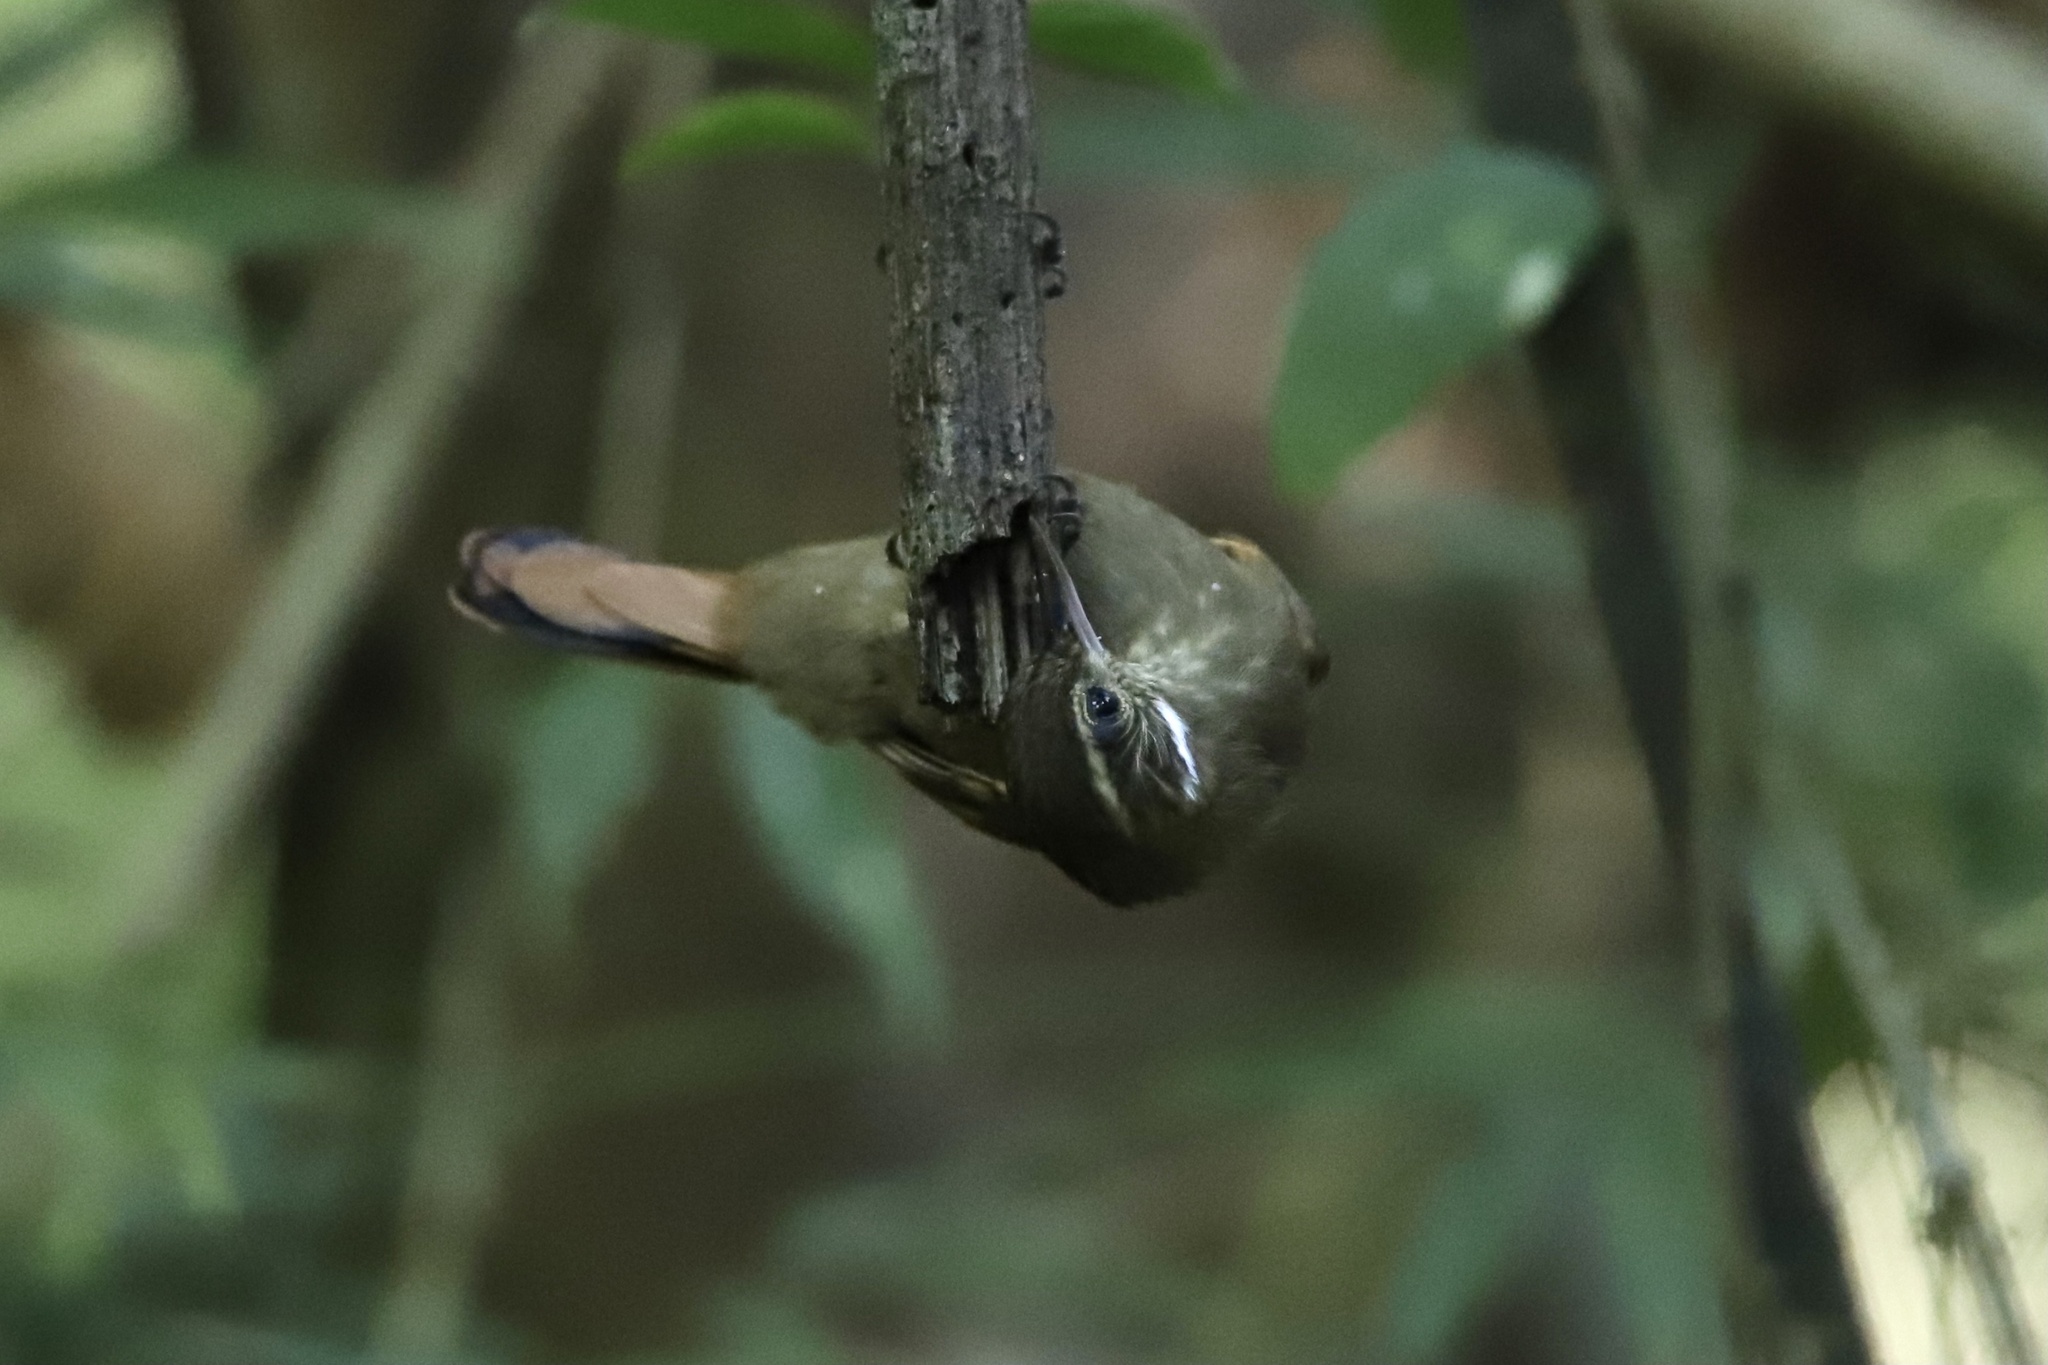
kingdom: Animalia
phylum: Chordata
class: Aves
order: Passeriformes
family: Furnariidae
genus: Xenops
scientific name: Xenops minutus
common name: Plain xenops
